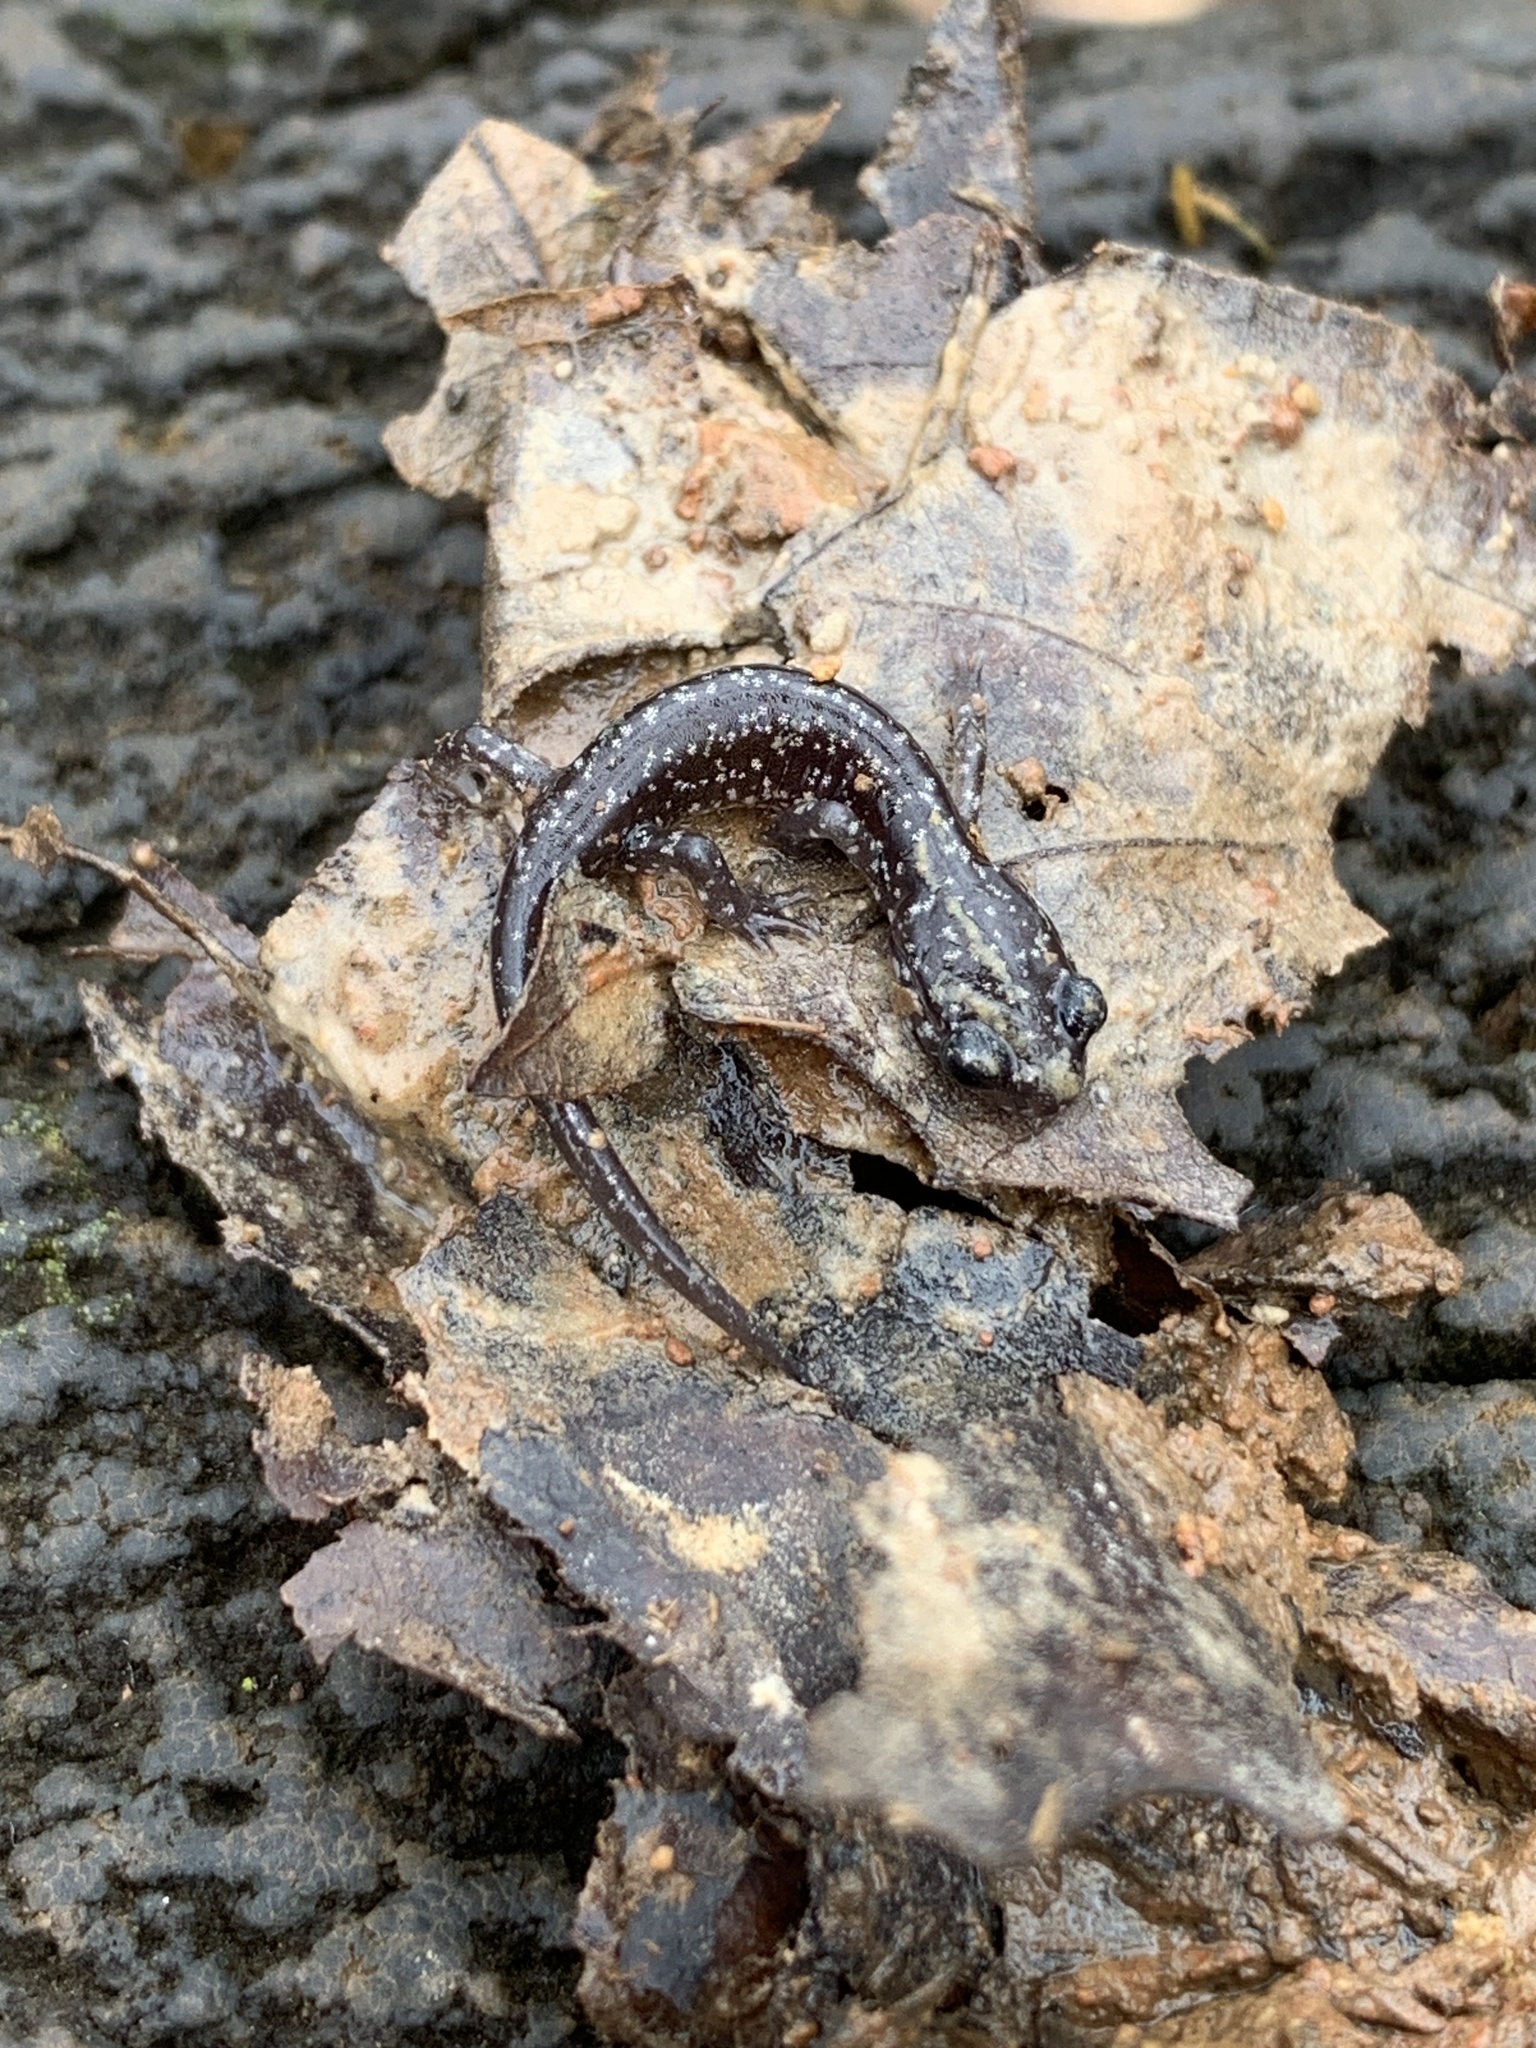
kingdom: Animalia
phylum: Chordata
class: Amphibia
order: Caudata
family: Plethodontidae
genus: Plethodon
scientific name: Plethodon glutinosus
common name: Northern slimy salamander
